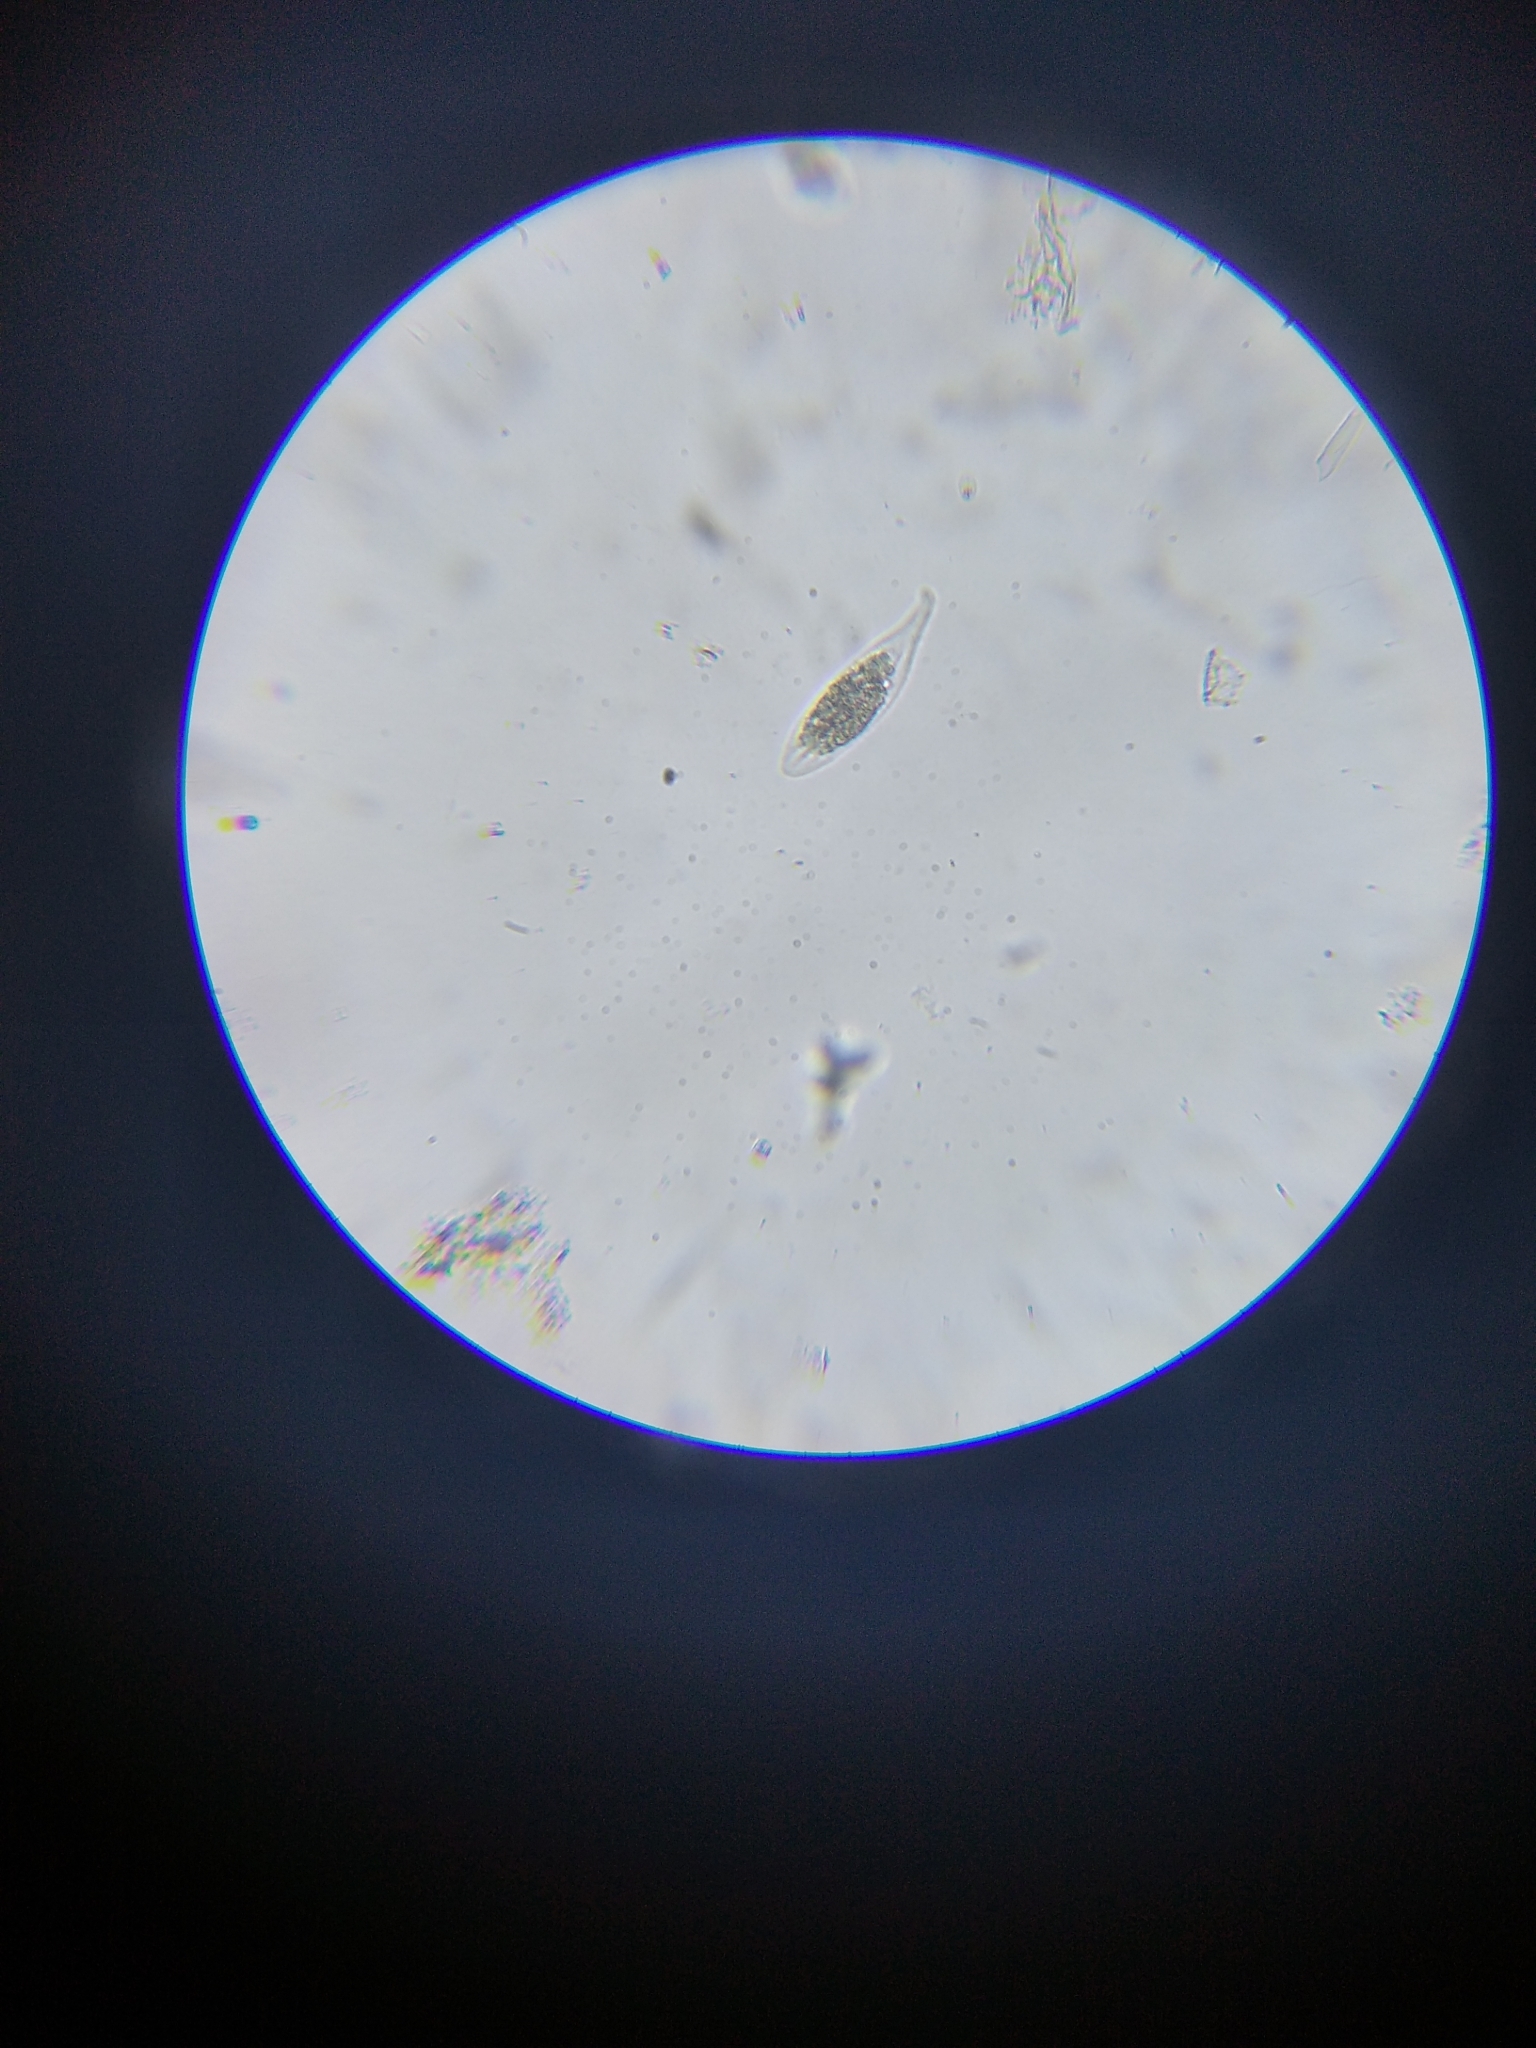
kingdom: Chromista
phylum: Ciliophora
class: Gymnostomatea
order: Pleurostomatida
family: Litonotidae
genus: Litonotus
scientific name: Litonotus
